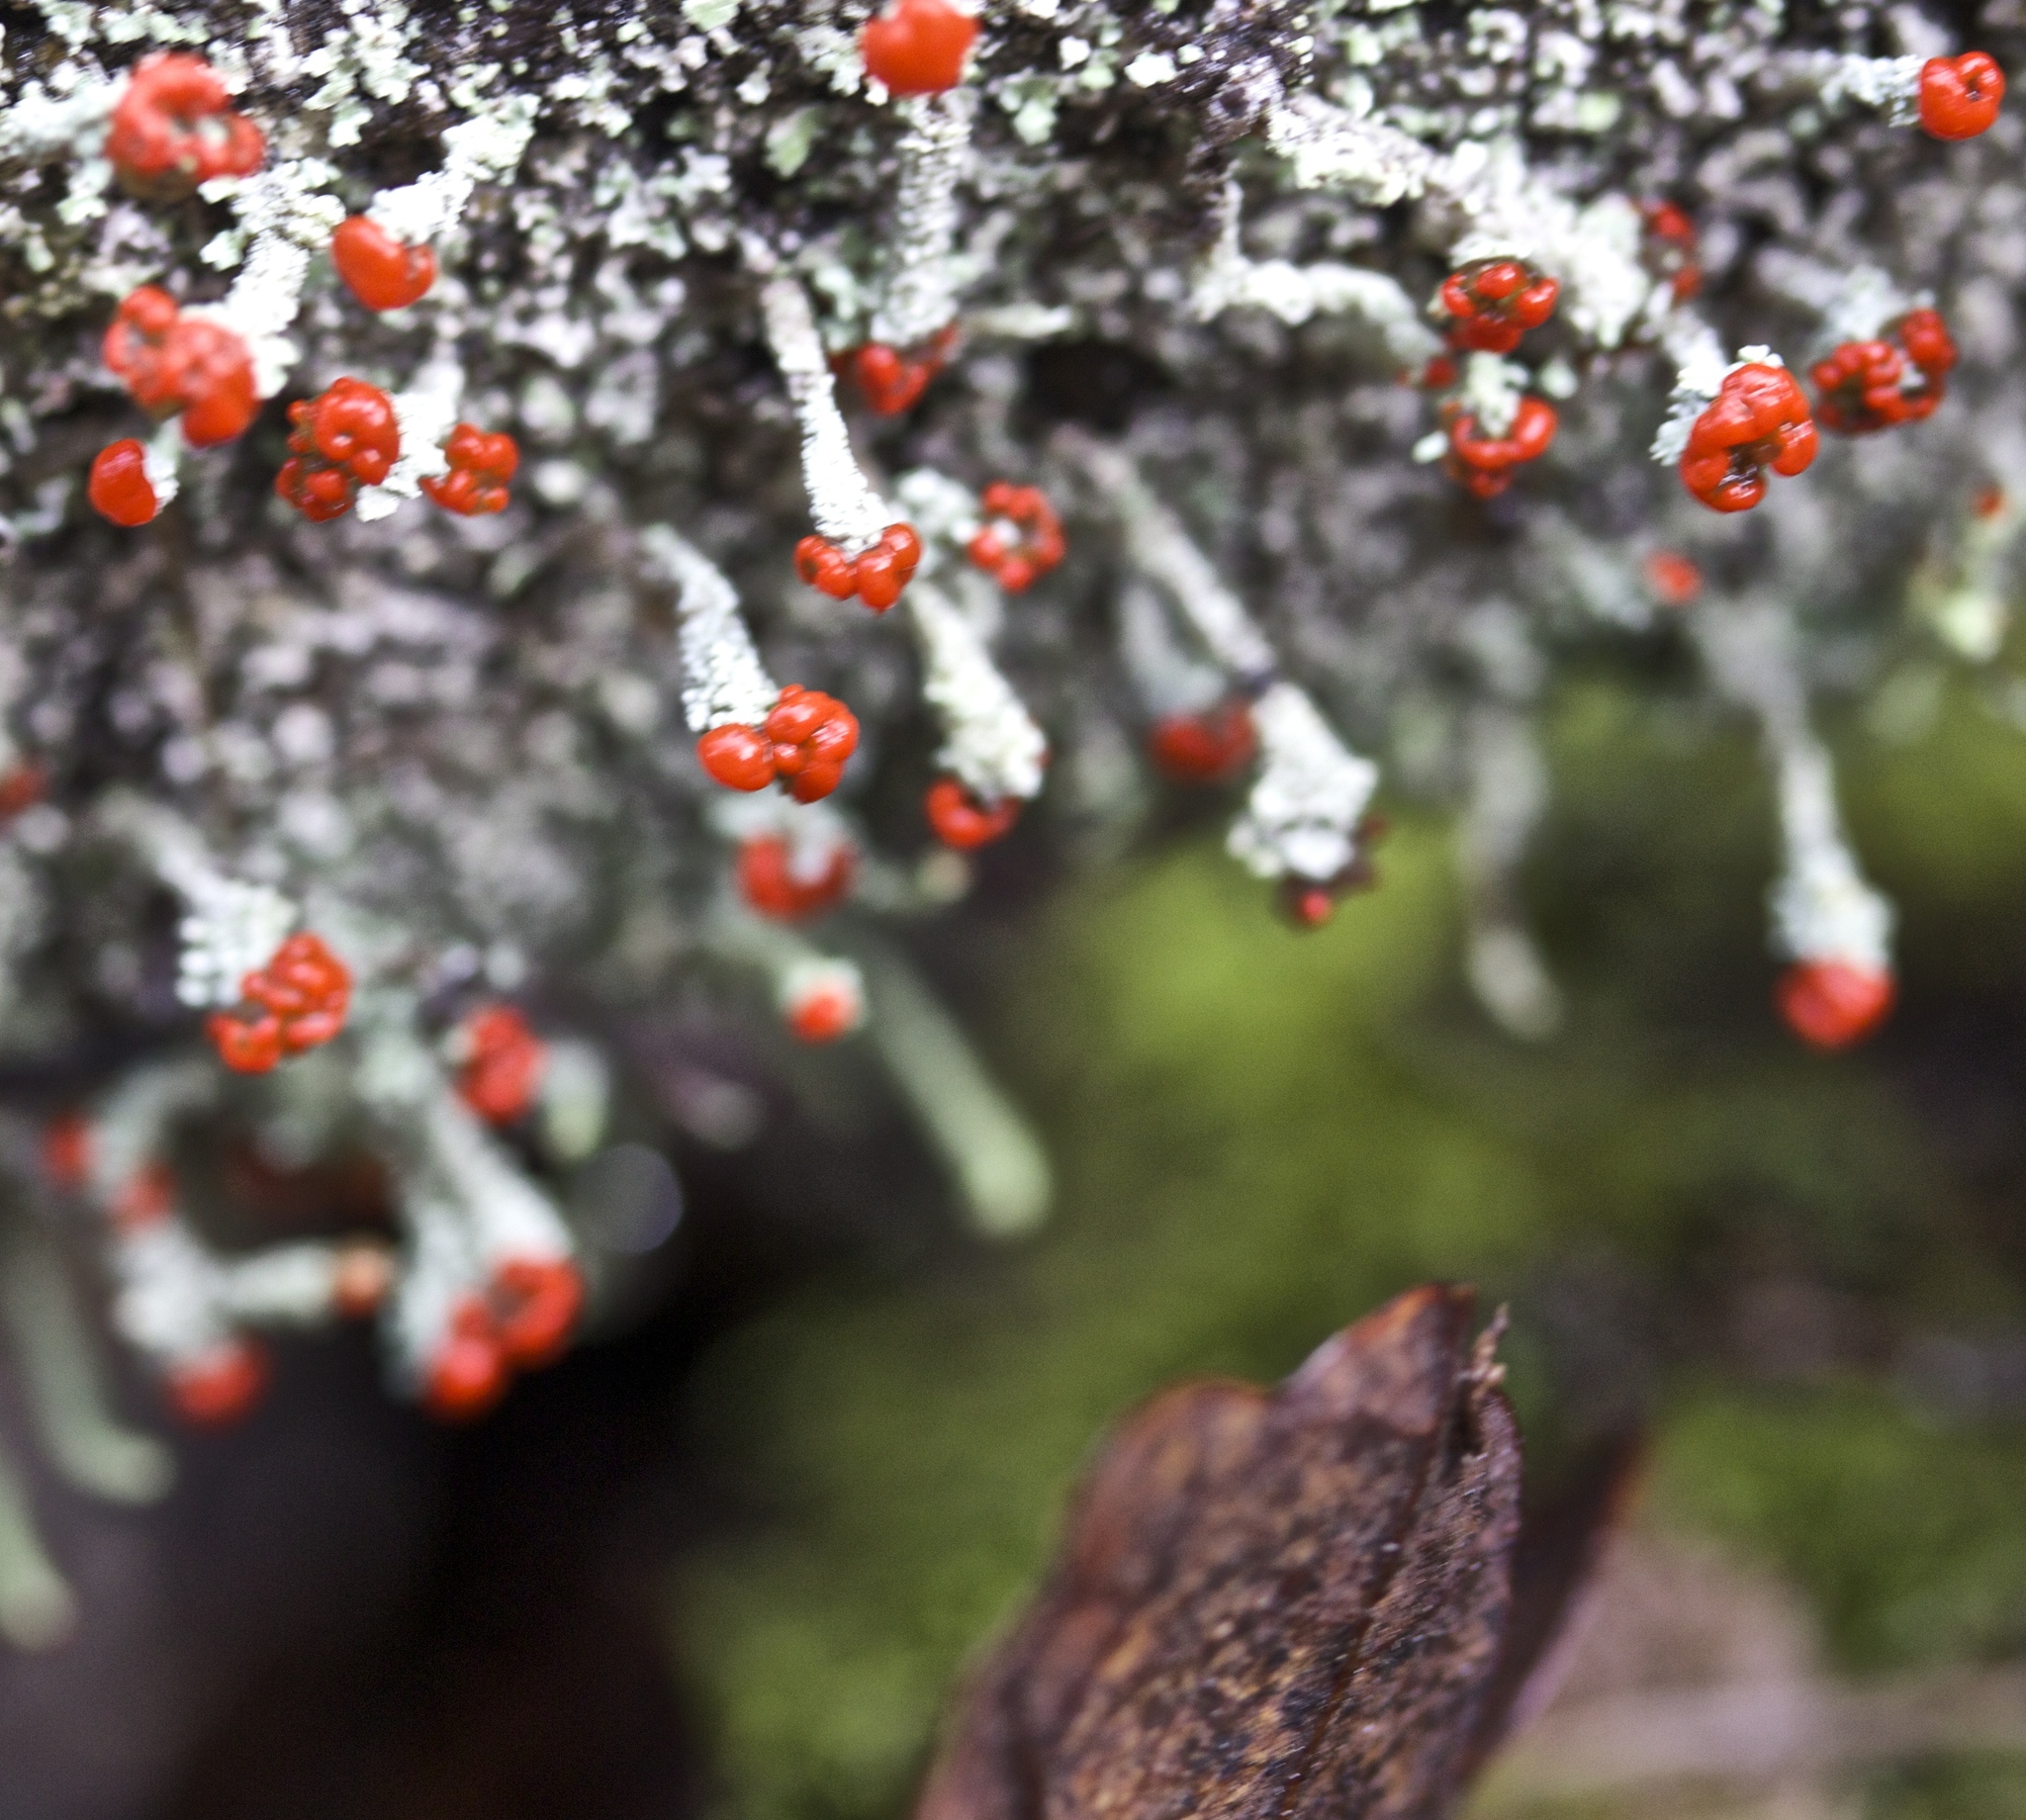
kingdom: Fungi
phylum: Ascomycota
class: Lecanoromycetes
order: Lecanorales
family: Cladoniaceae
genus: Cladonia
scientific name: Cladonia macilenta
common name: Lipstick powderhorn
